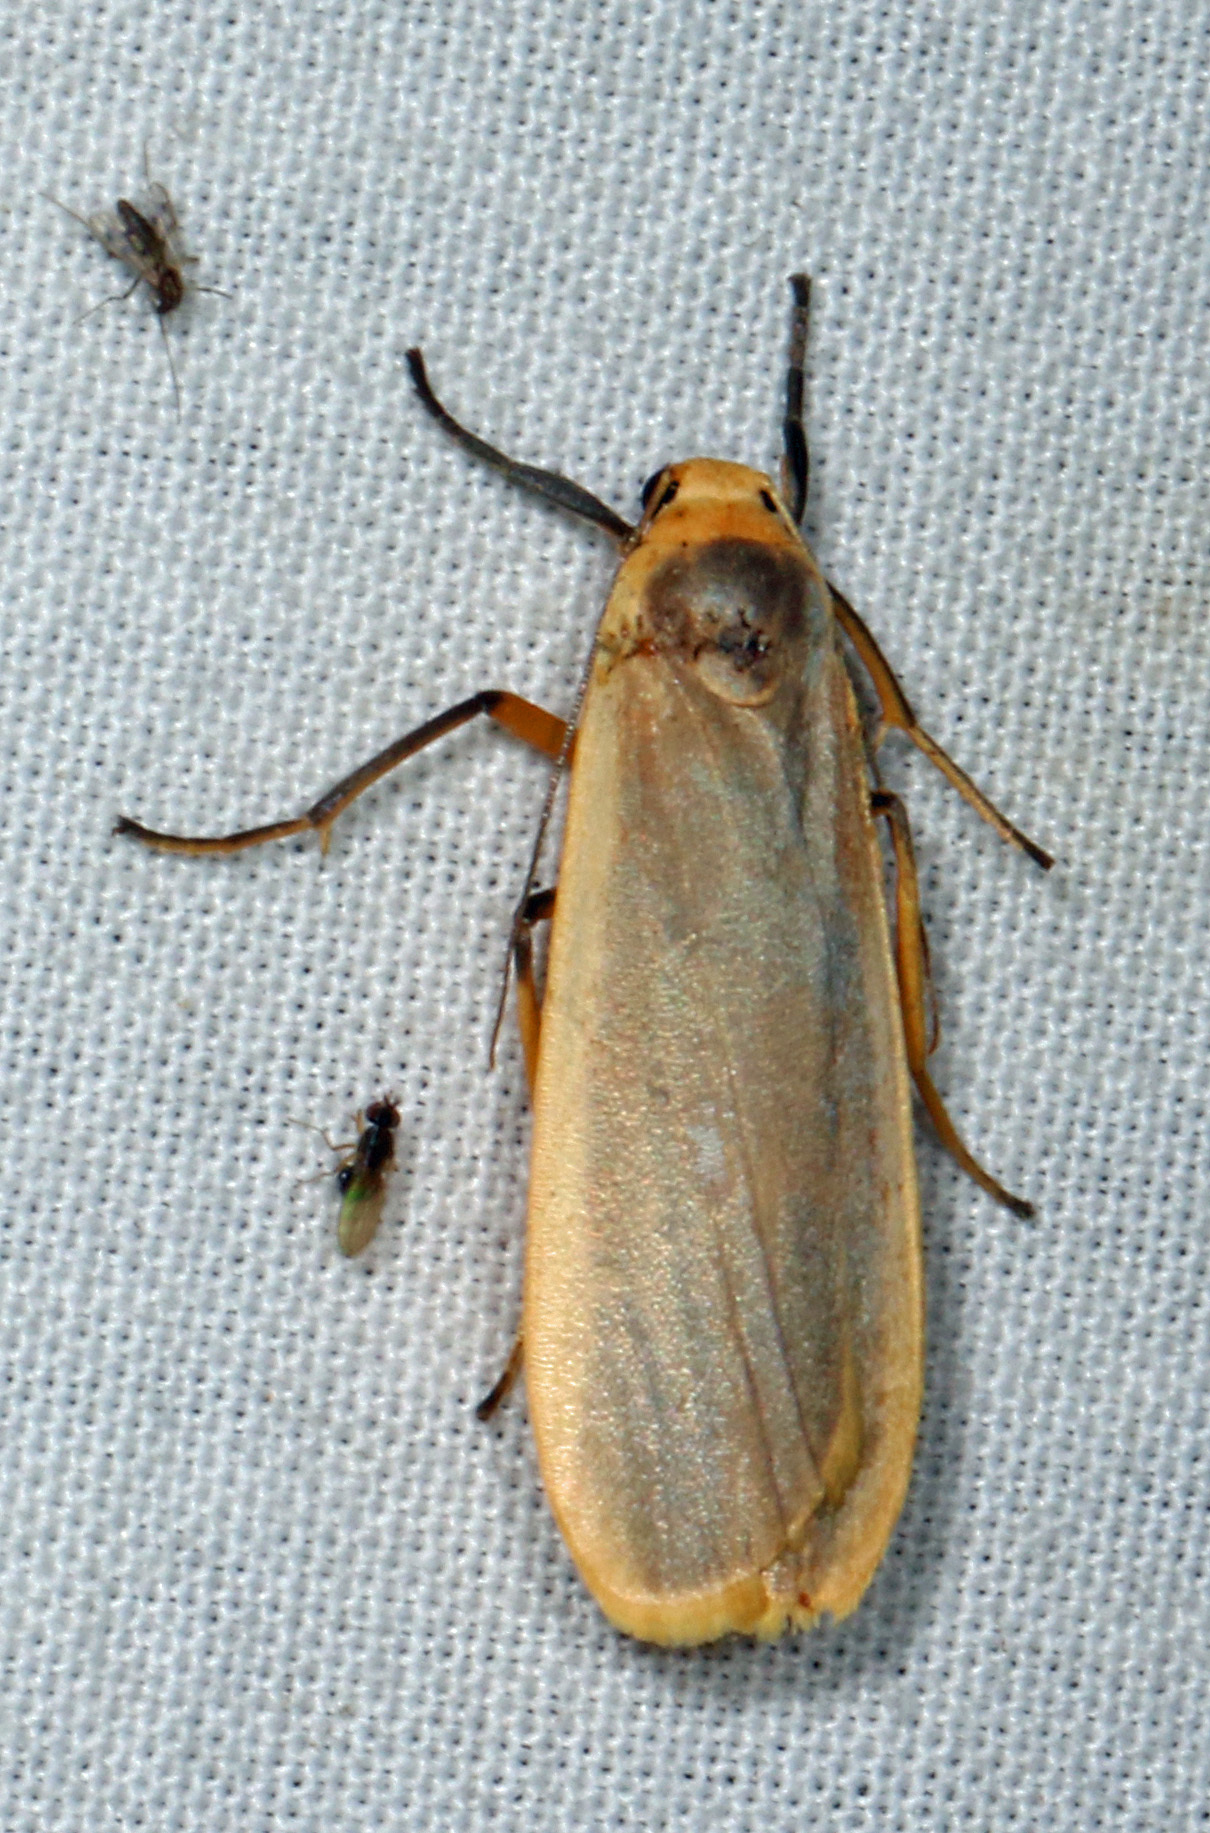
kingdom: Animalia
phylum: Arthropoda
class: Insecta
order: Lepidoptera
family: Erebidae
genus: Brunia
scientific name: Brunia vicaria
